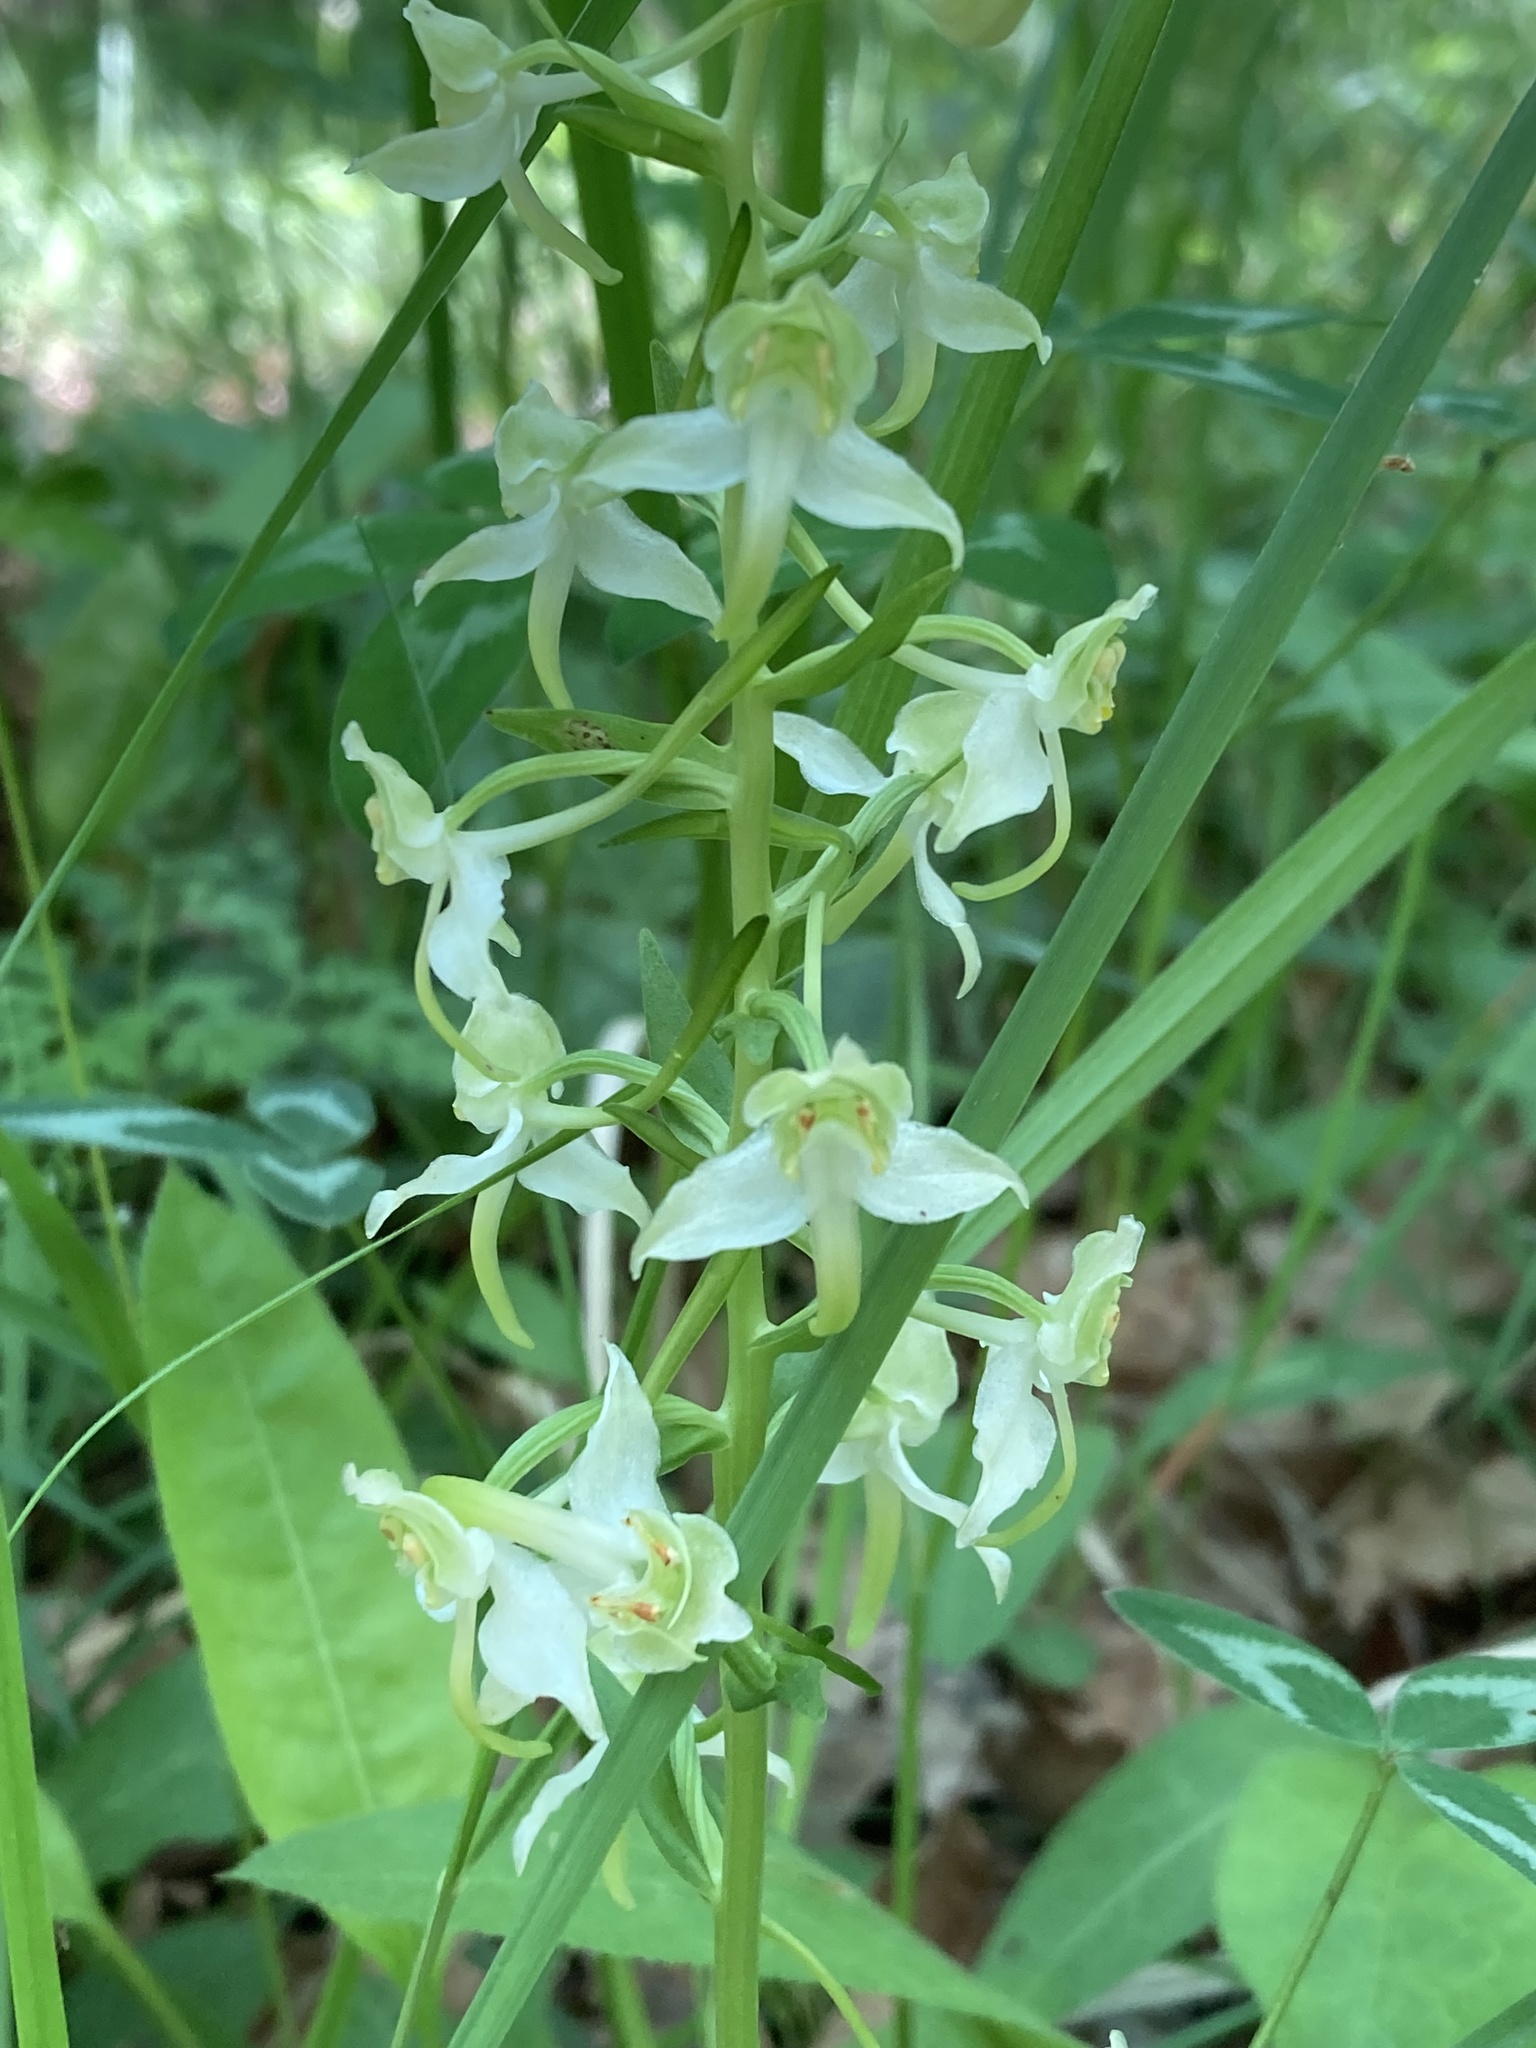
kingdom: Plantae
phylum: Tracheophyta
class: Liliopsida
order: Asparagales
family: Orchidaceae
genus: Platanthera
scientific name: Platanthera chlorantha
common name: Greater butterfly-orchid
